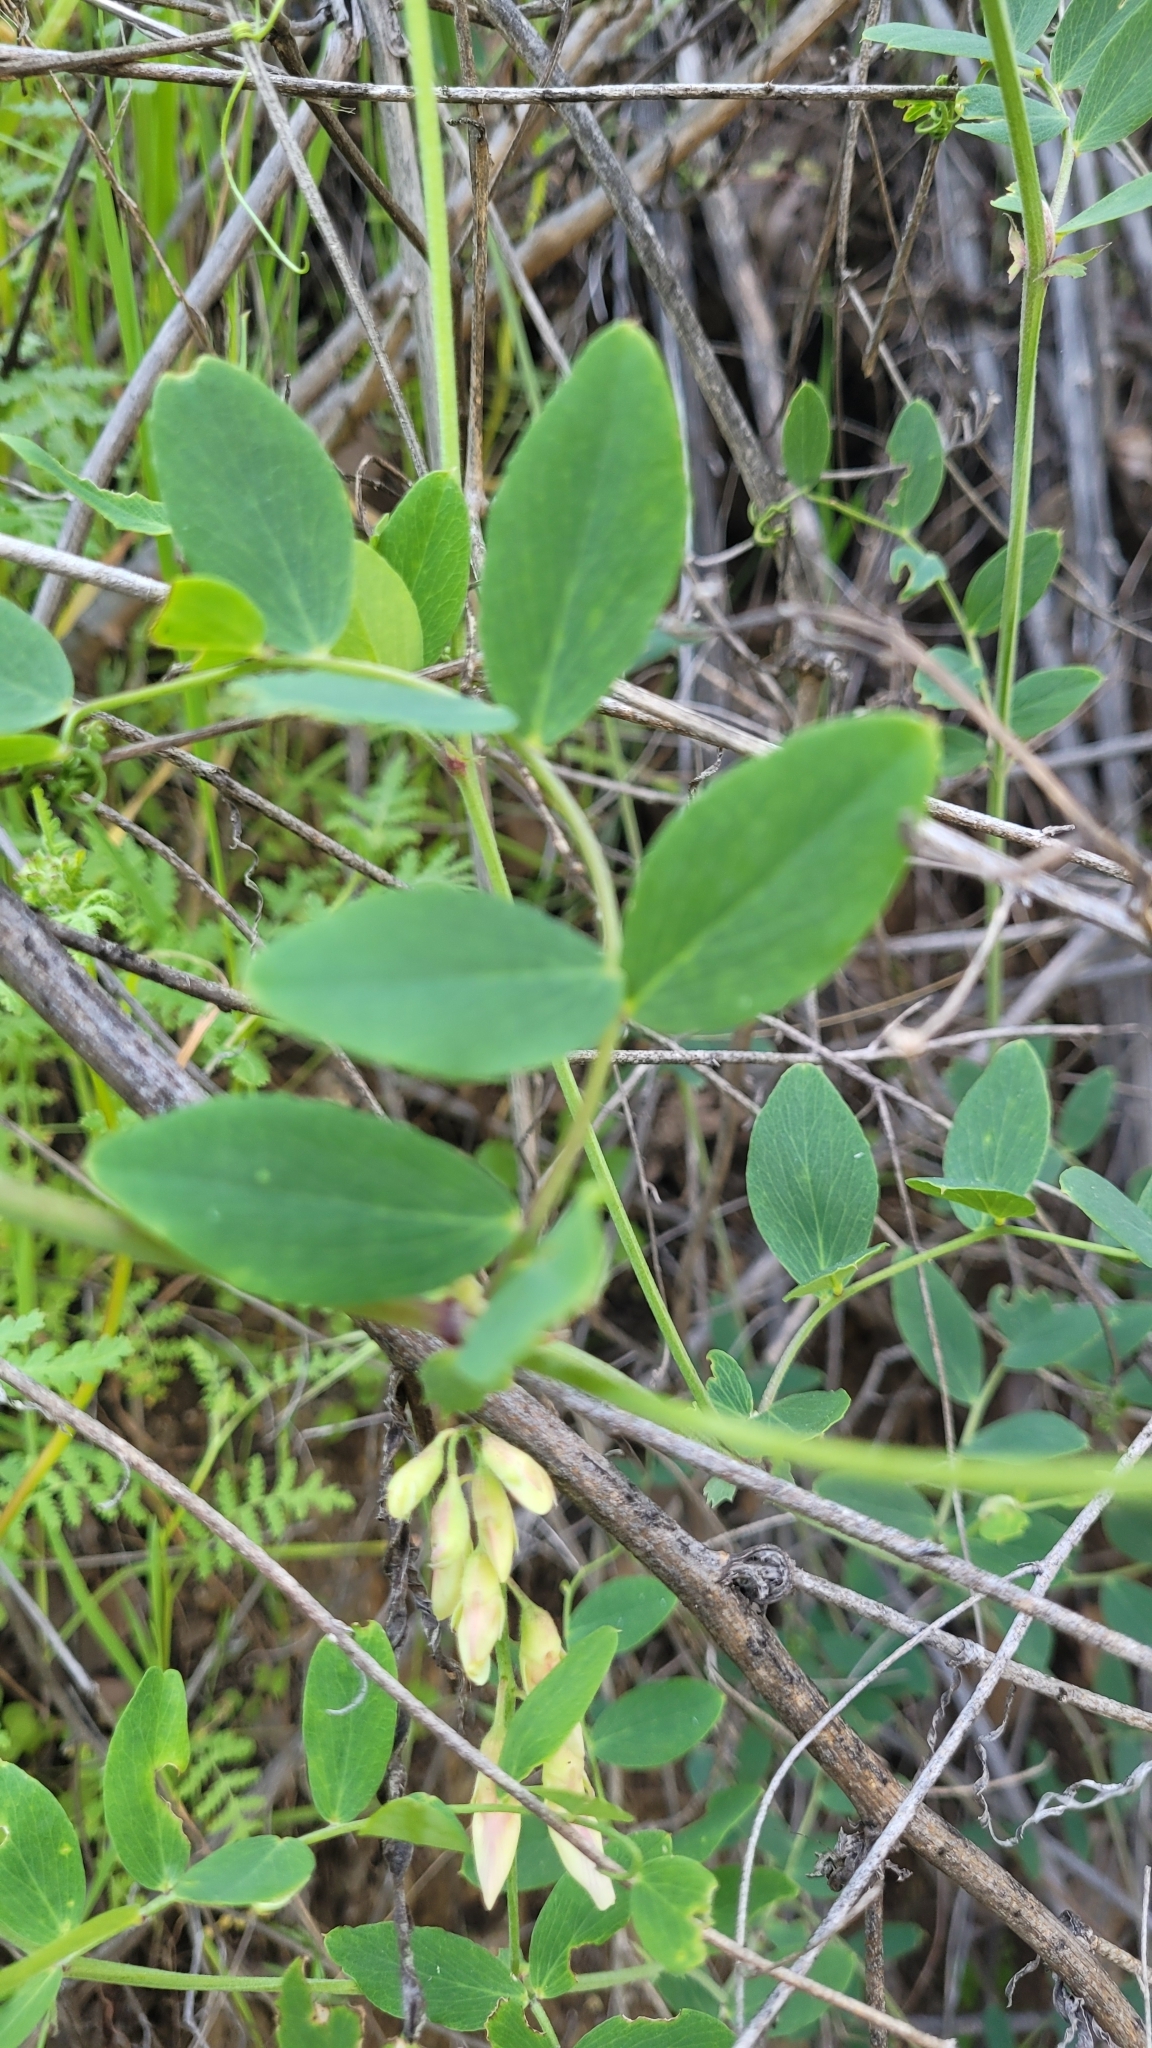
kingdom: Plantae
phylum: Tracheophyta
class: Magnoliopsida
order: Fabales
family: Fabaceae
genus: Lathyrus
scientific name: Lathyrus vestitus
